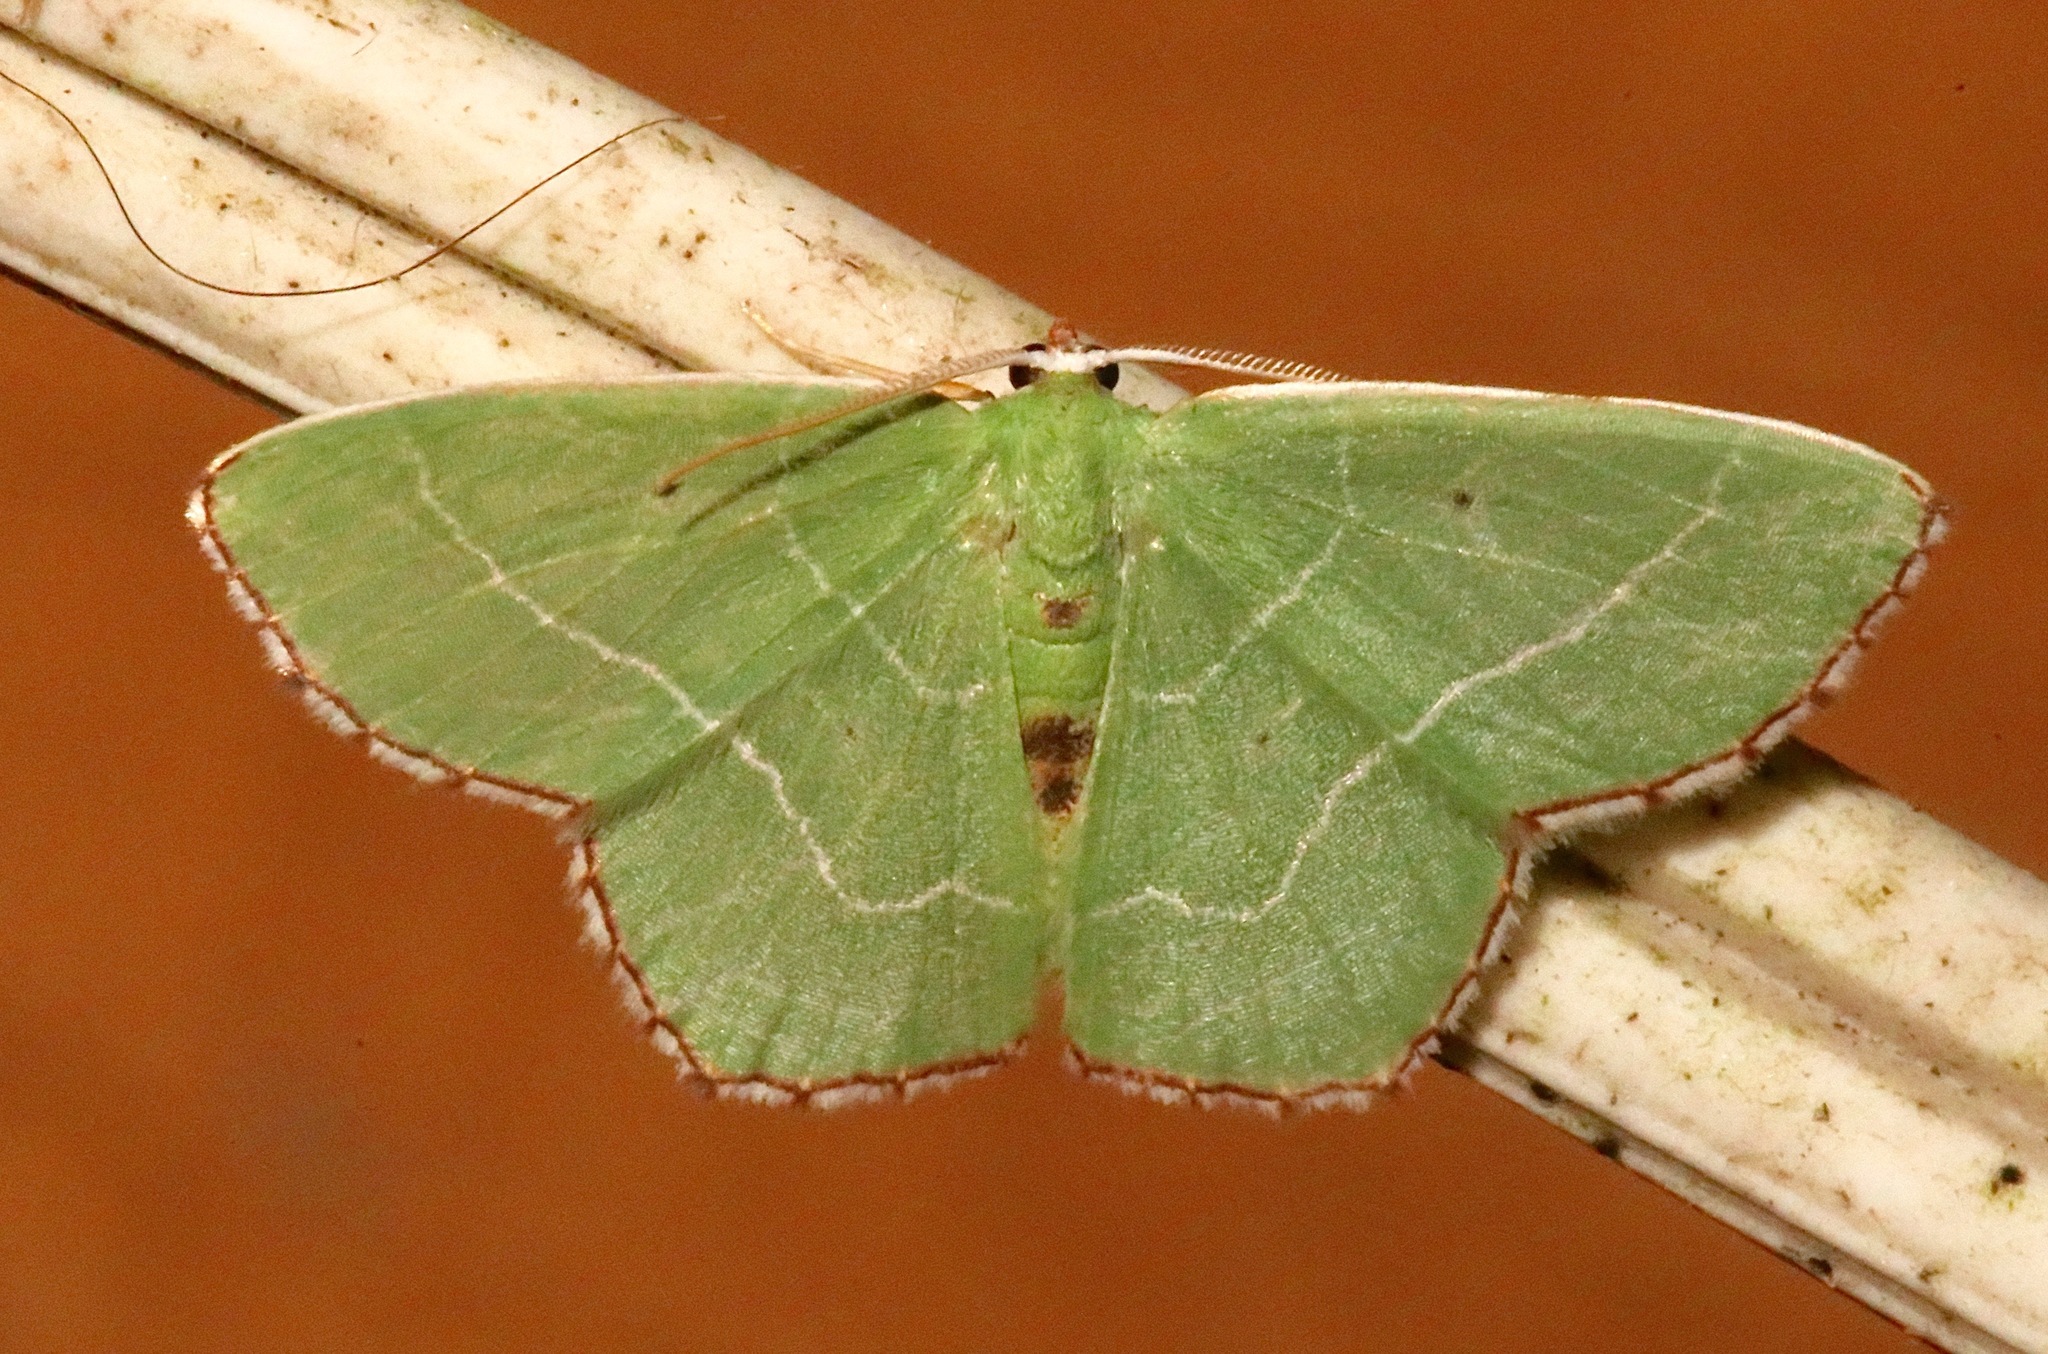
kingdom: Animalia
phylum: Arthropoda
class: Insecta
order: Lepidoptera
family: Geometridae
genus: Nemoria
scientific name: Nemoria saturiba
